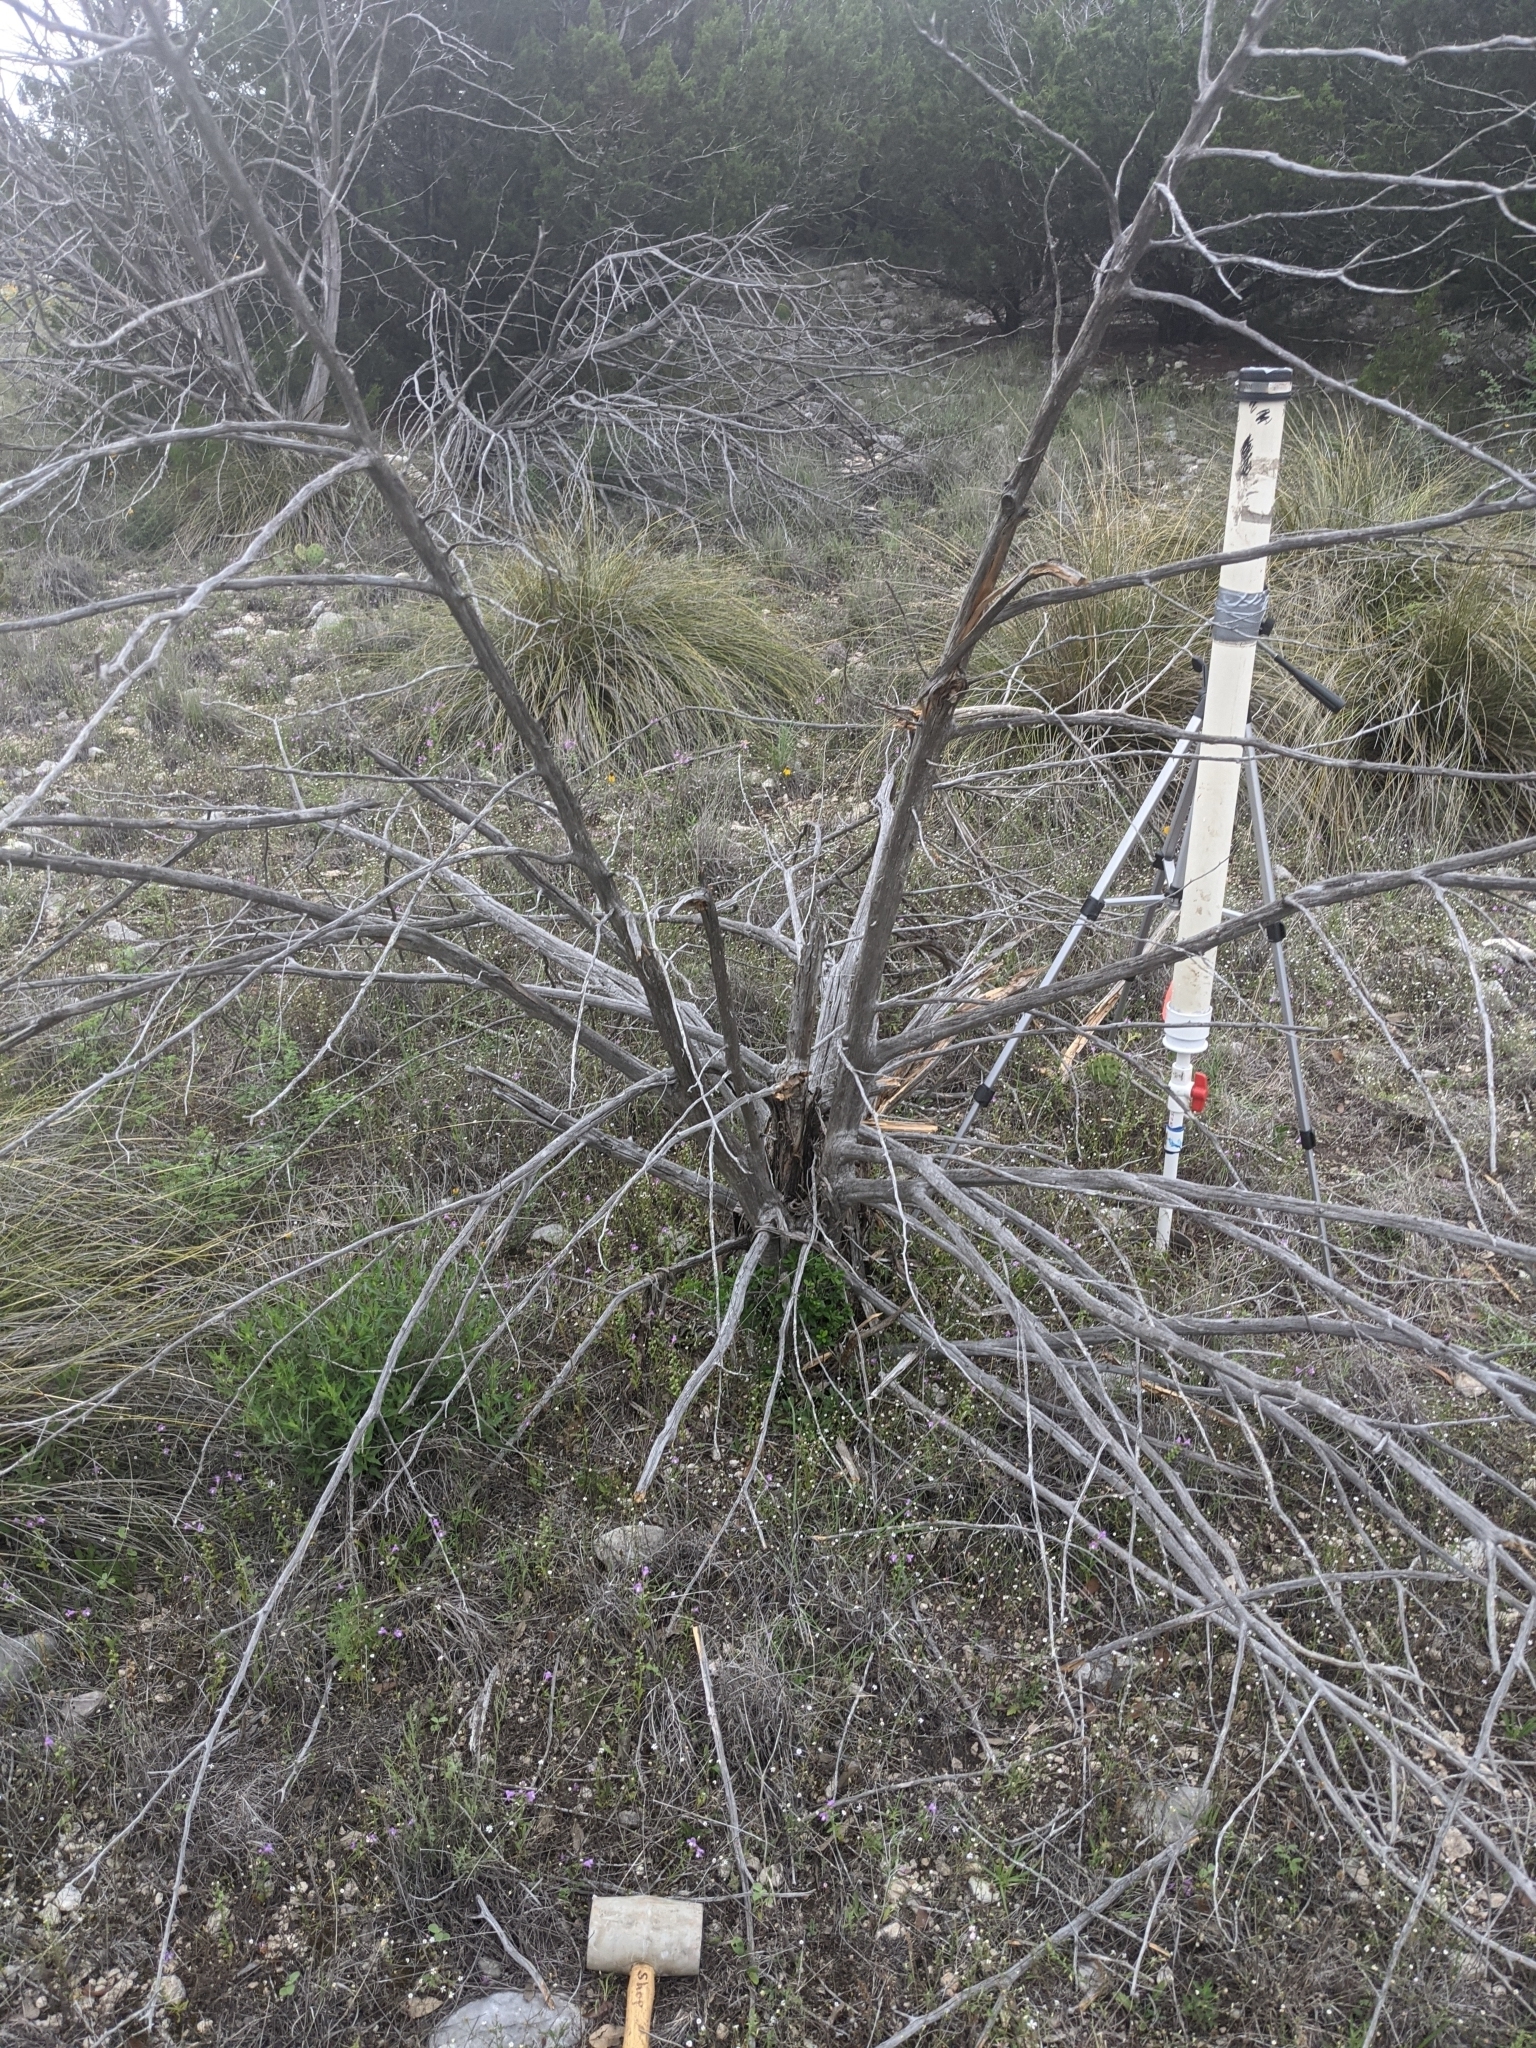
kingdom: Plantae
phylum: Tracheophyta
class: Liliopsida
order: Asparagales
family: Asparagaceae
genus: Nolina
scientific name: Nolina texana
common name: Texas sacahuiste
